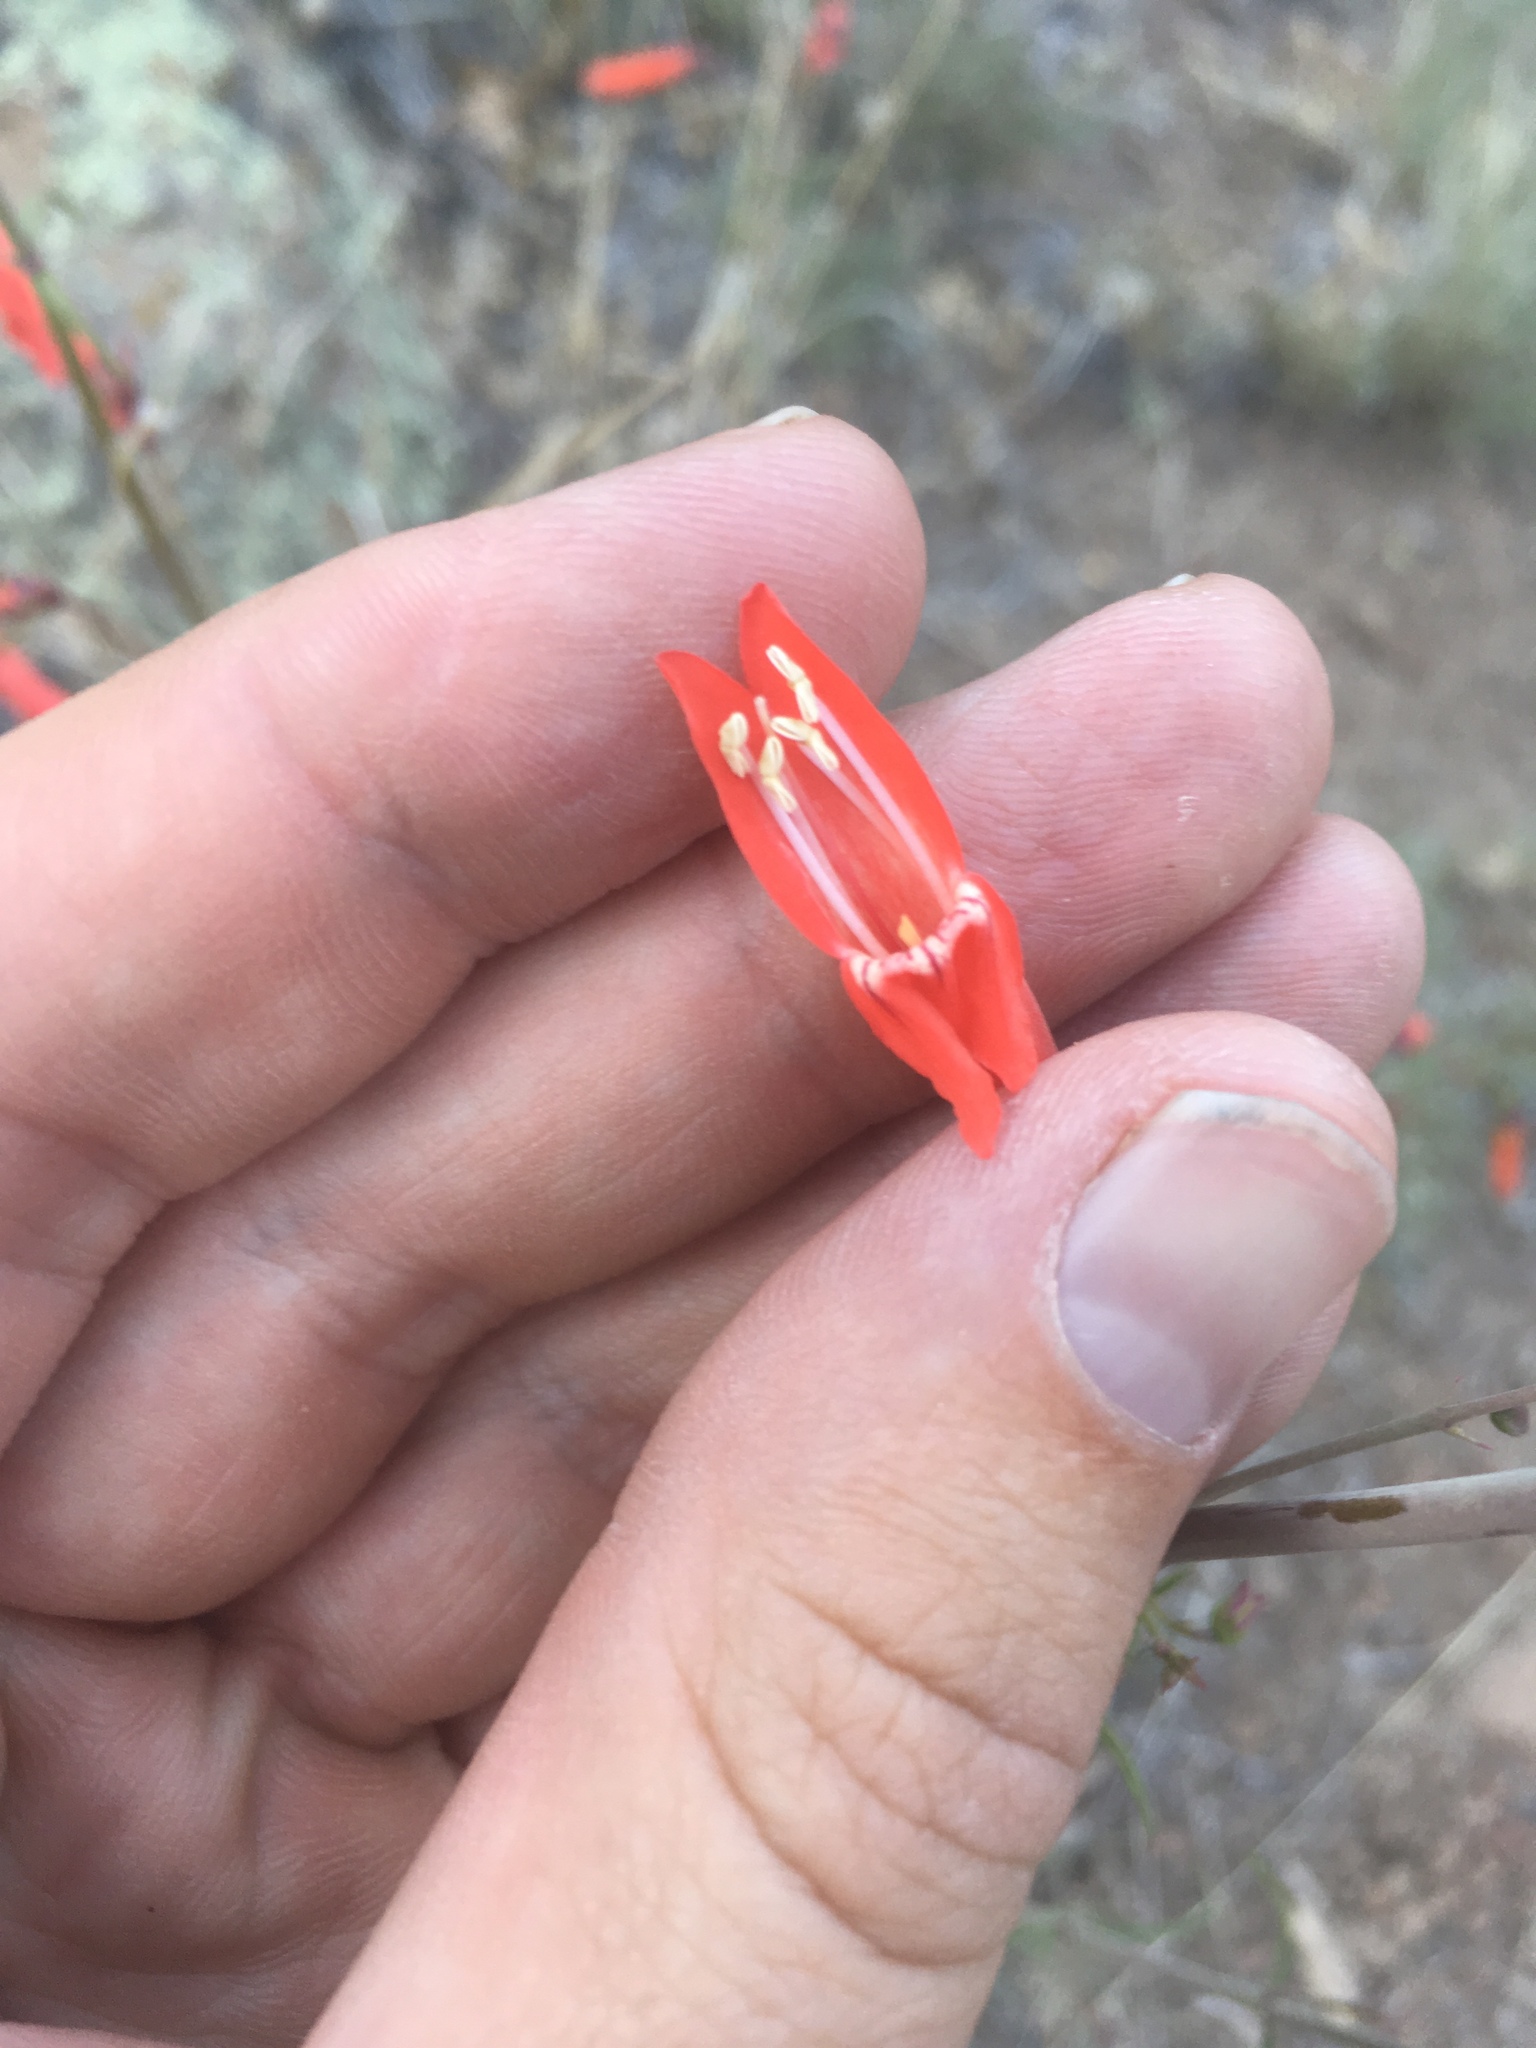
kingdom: Plantae
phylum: Tracheophyta
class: Magnoliopsida
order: Lamiales
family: Plantaginaceae
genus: Penstemon
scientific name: Penstemon barbatus
